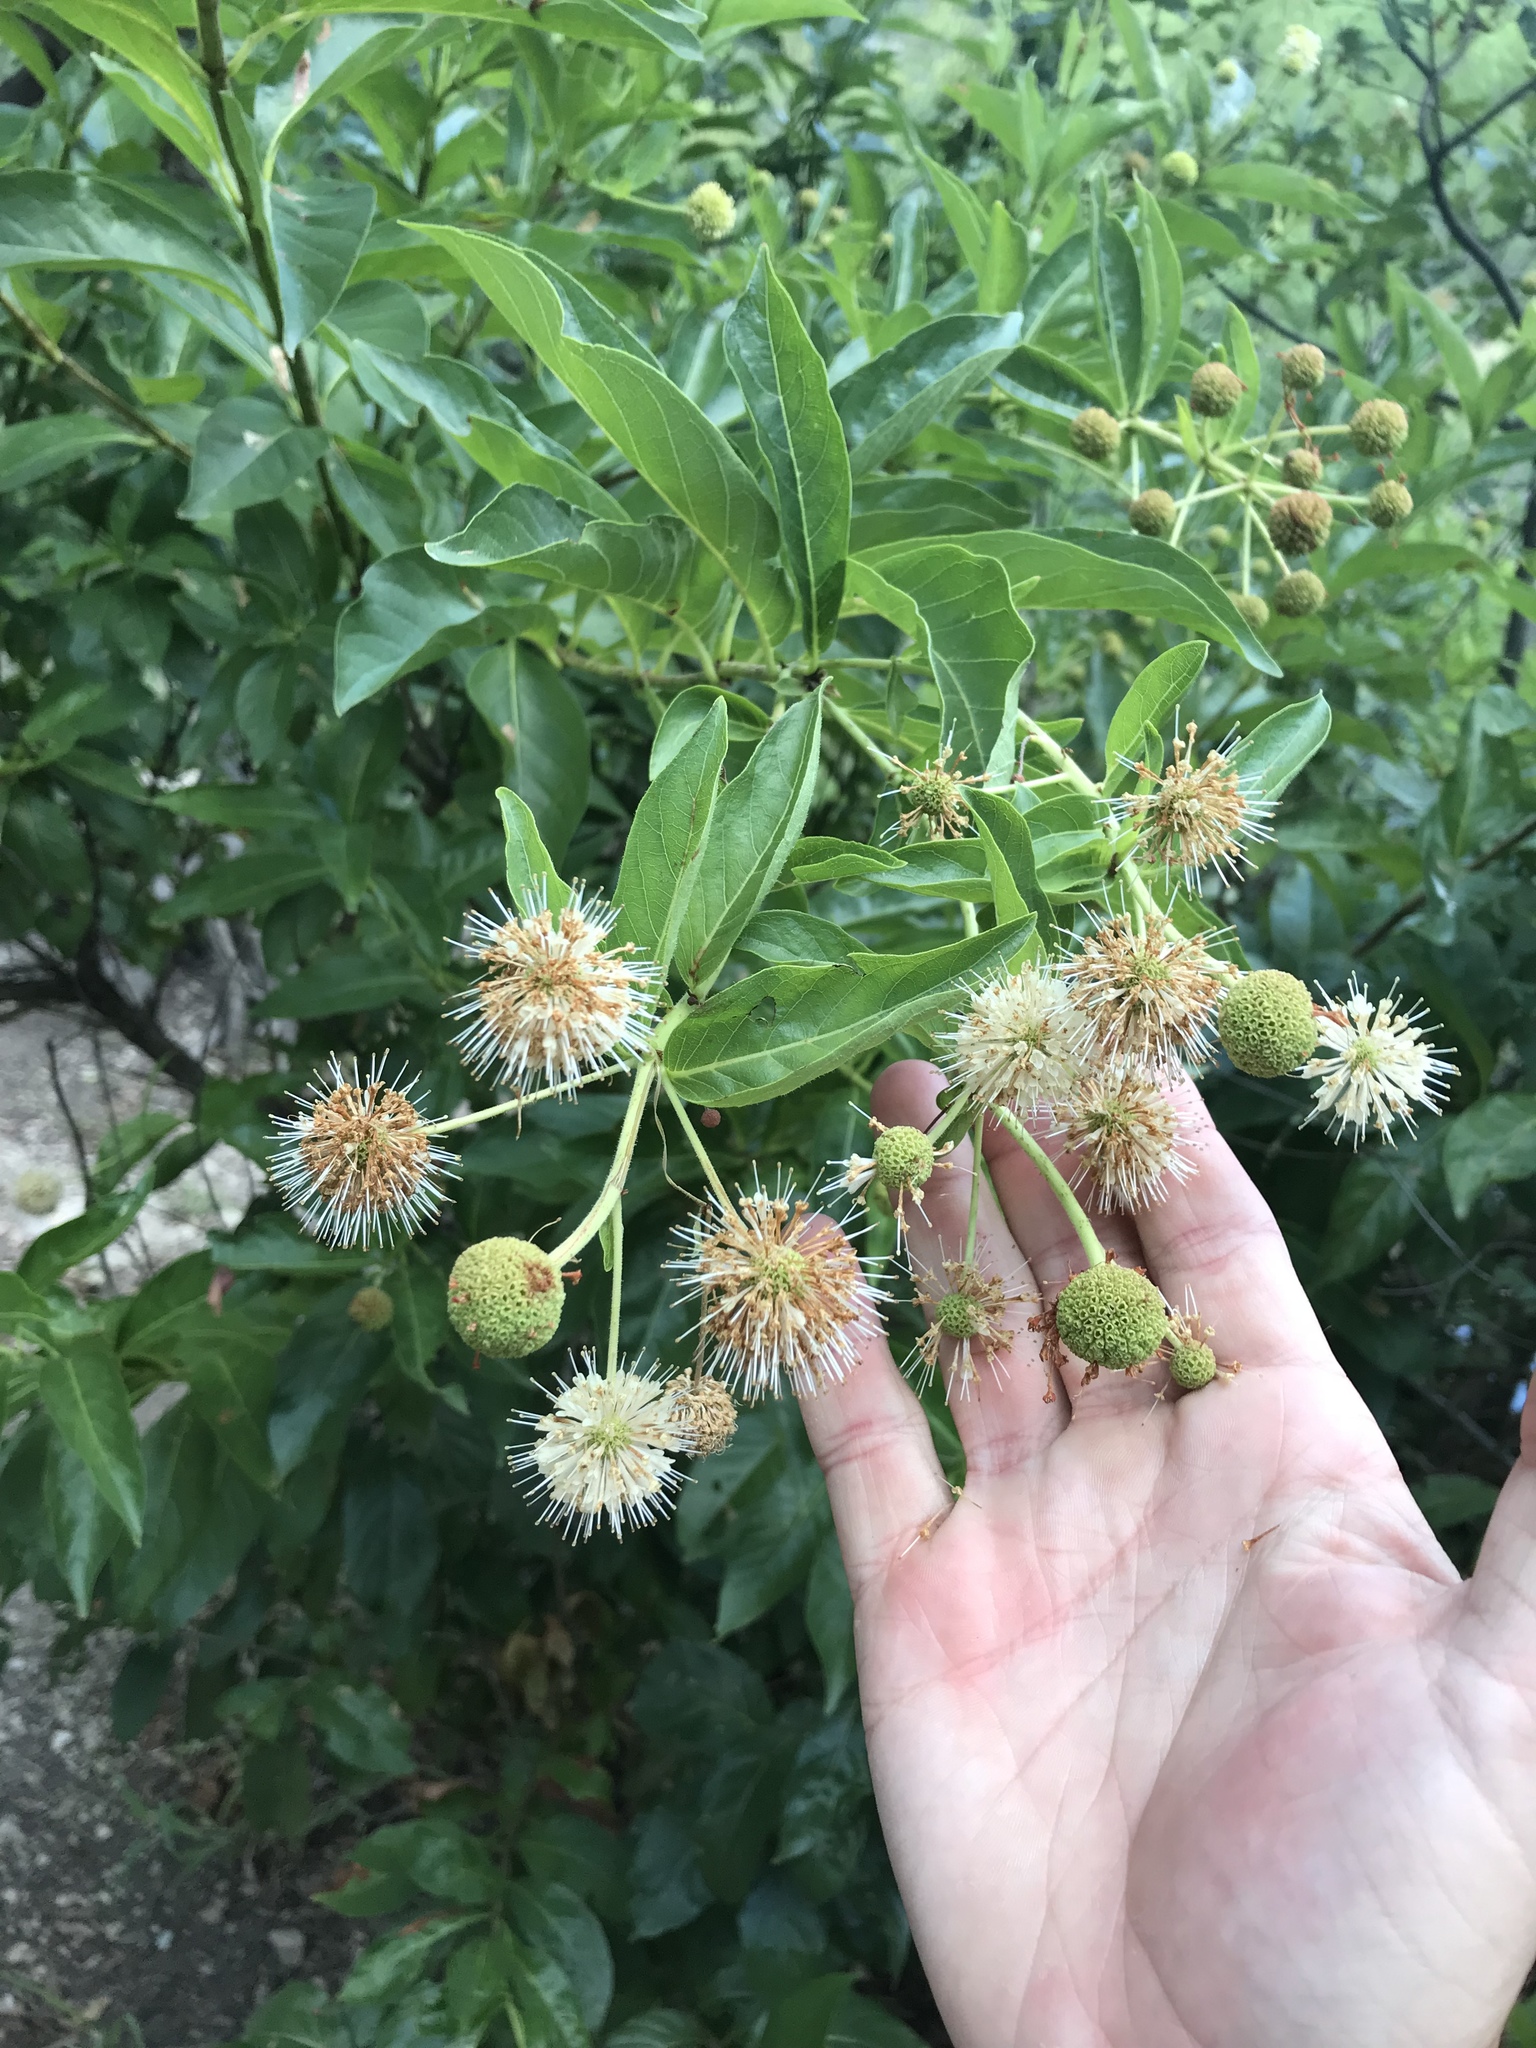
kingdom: Plantae
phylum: Tracheophyta
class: Magnoliopsida
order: Gentianales
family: Rubiaceae
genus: Cephalanthus
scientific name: Cephalanthus occidentalis
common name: Button-willow
